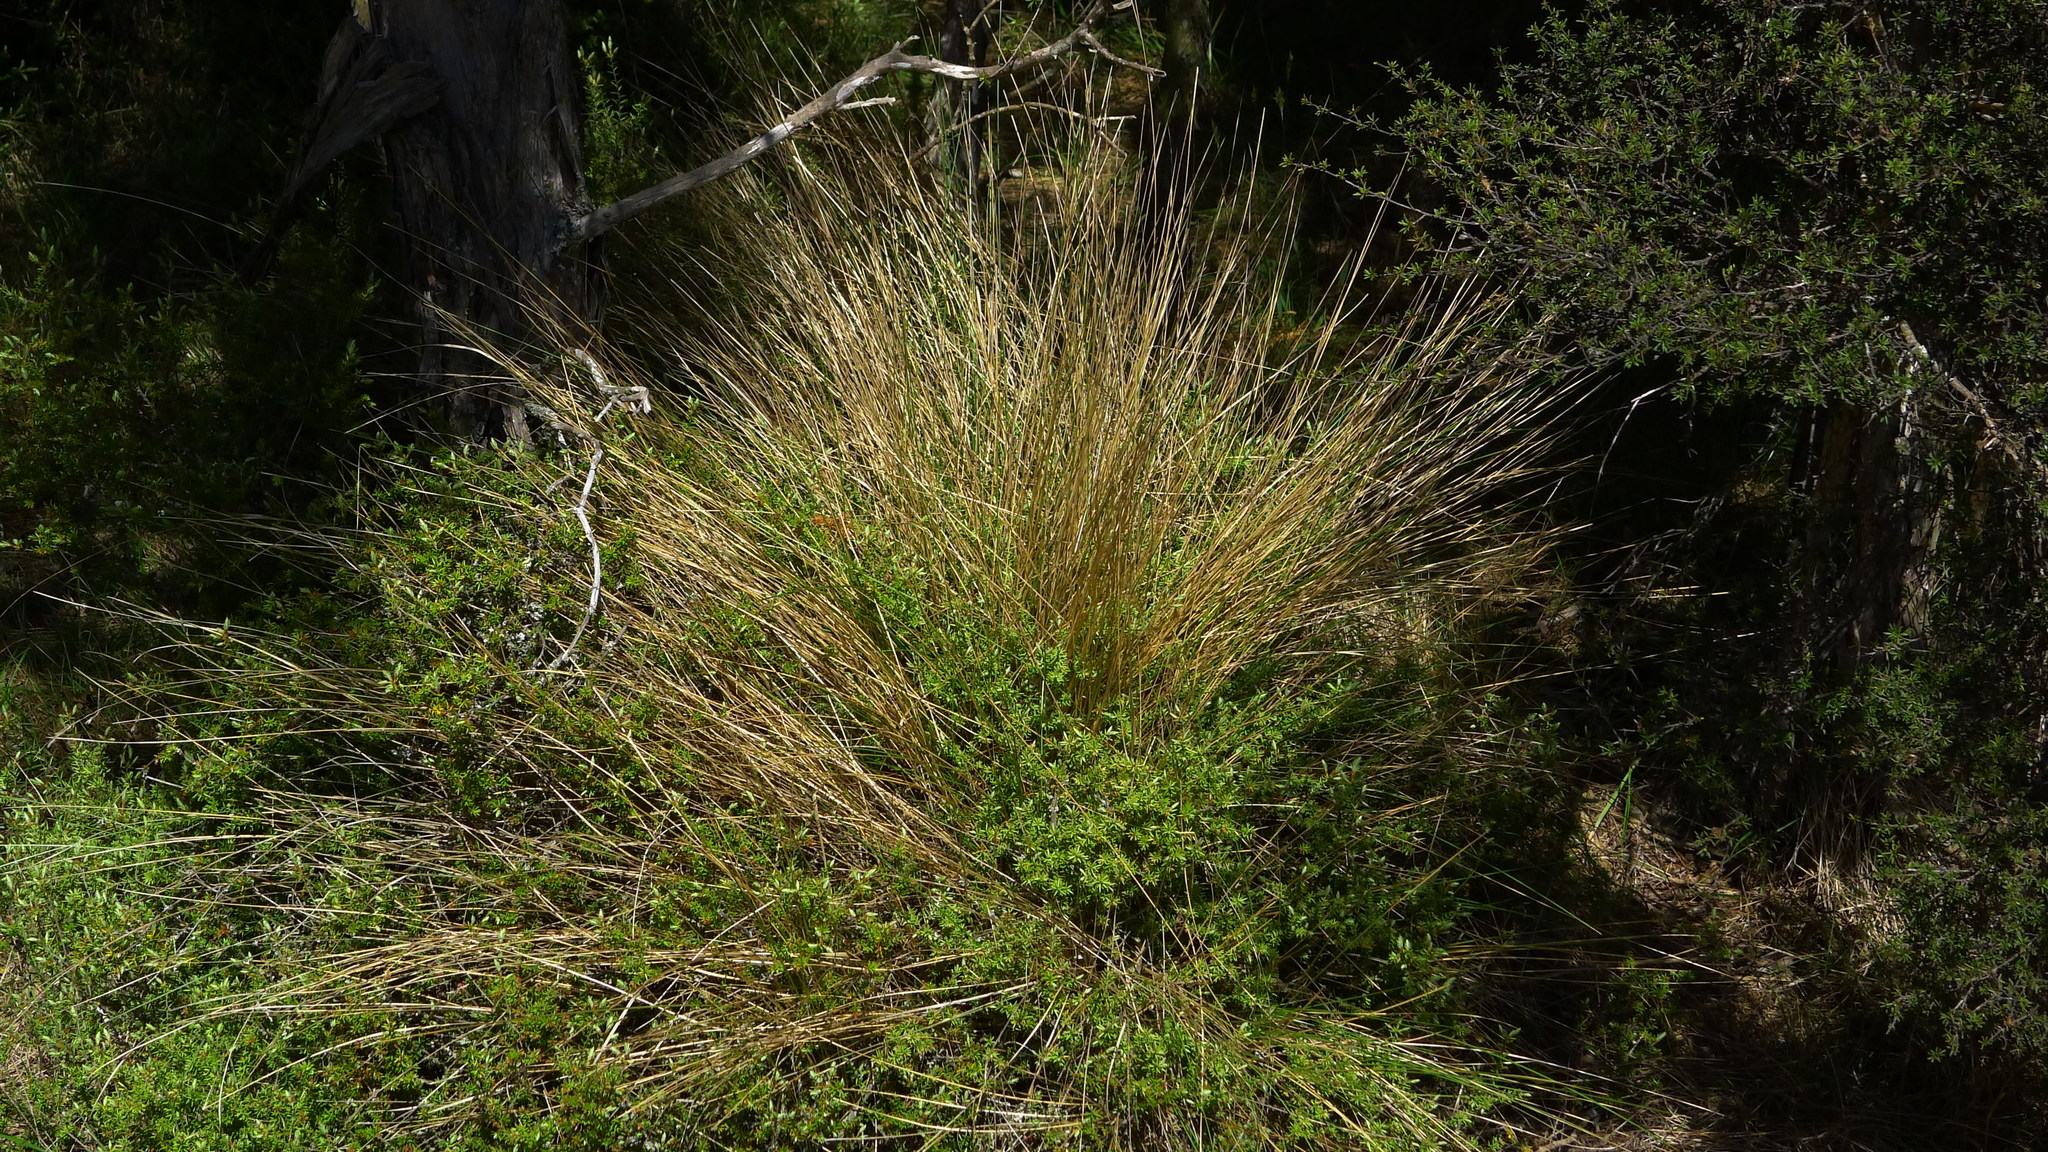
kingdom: Plantae
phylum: Tracheophyta
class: Liliopsida
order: Poales
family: Poaceae
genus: Poa
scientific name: Poa cita
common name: Silver tussock
